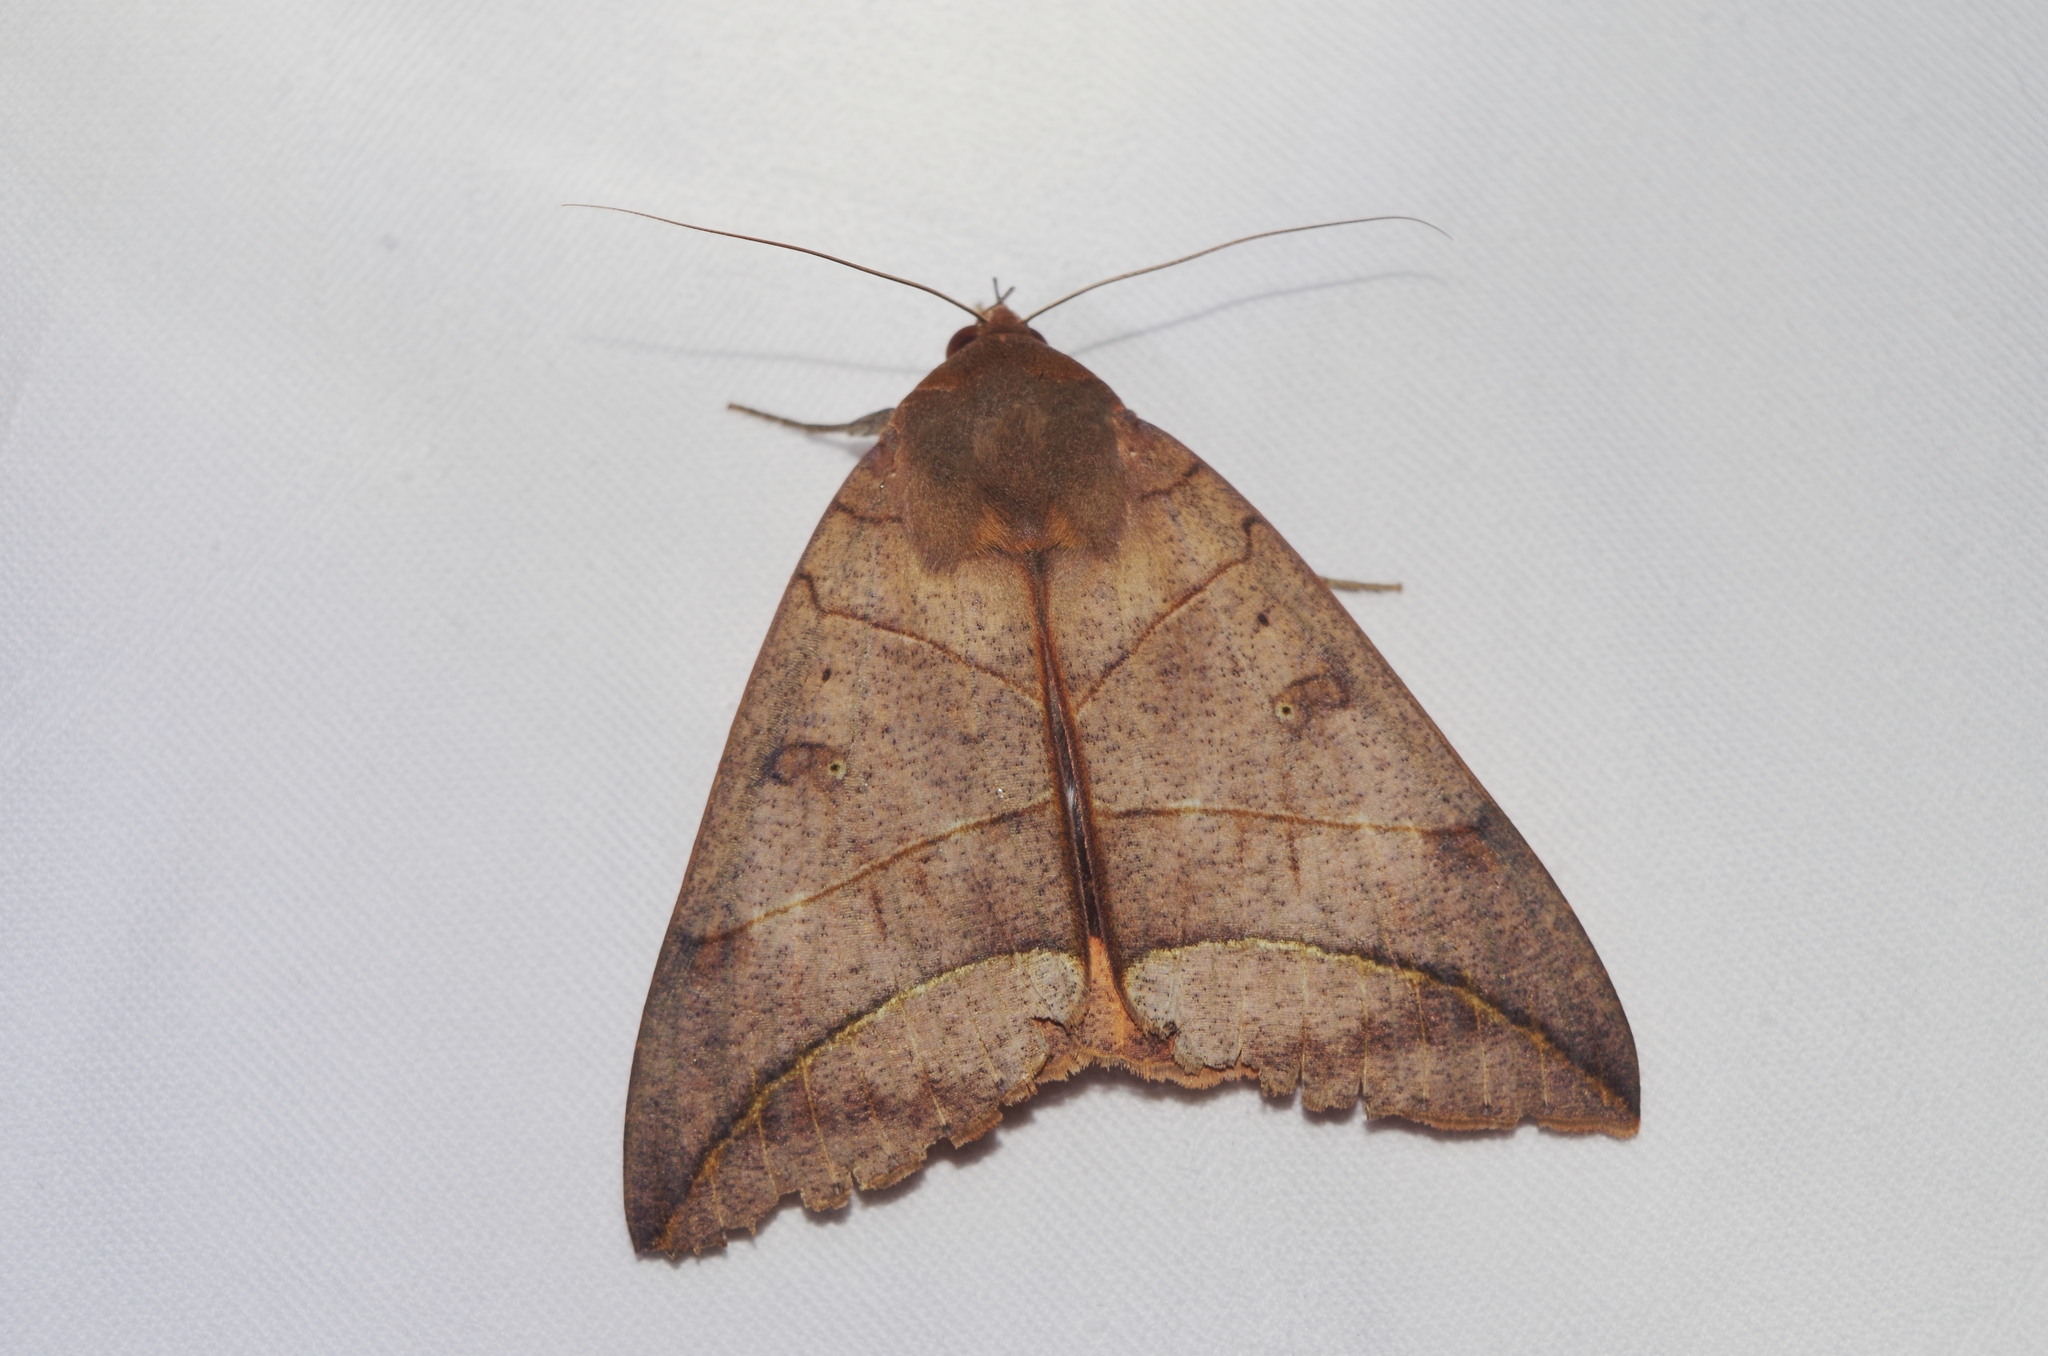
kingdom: Animalia
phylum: Arthropoda
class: Insecta
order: Lepidoptera
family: Erebidae
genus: Thyas
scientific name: Thyas juno
